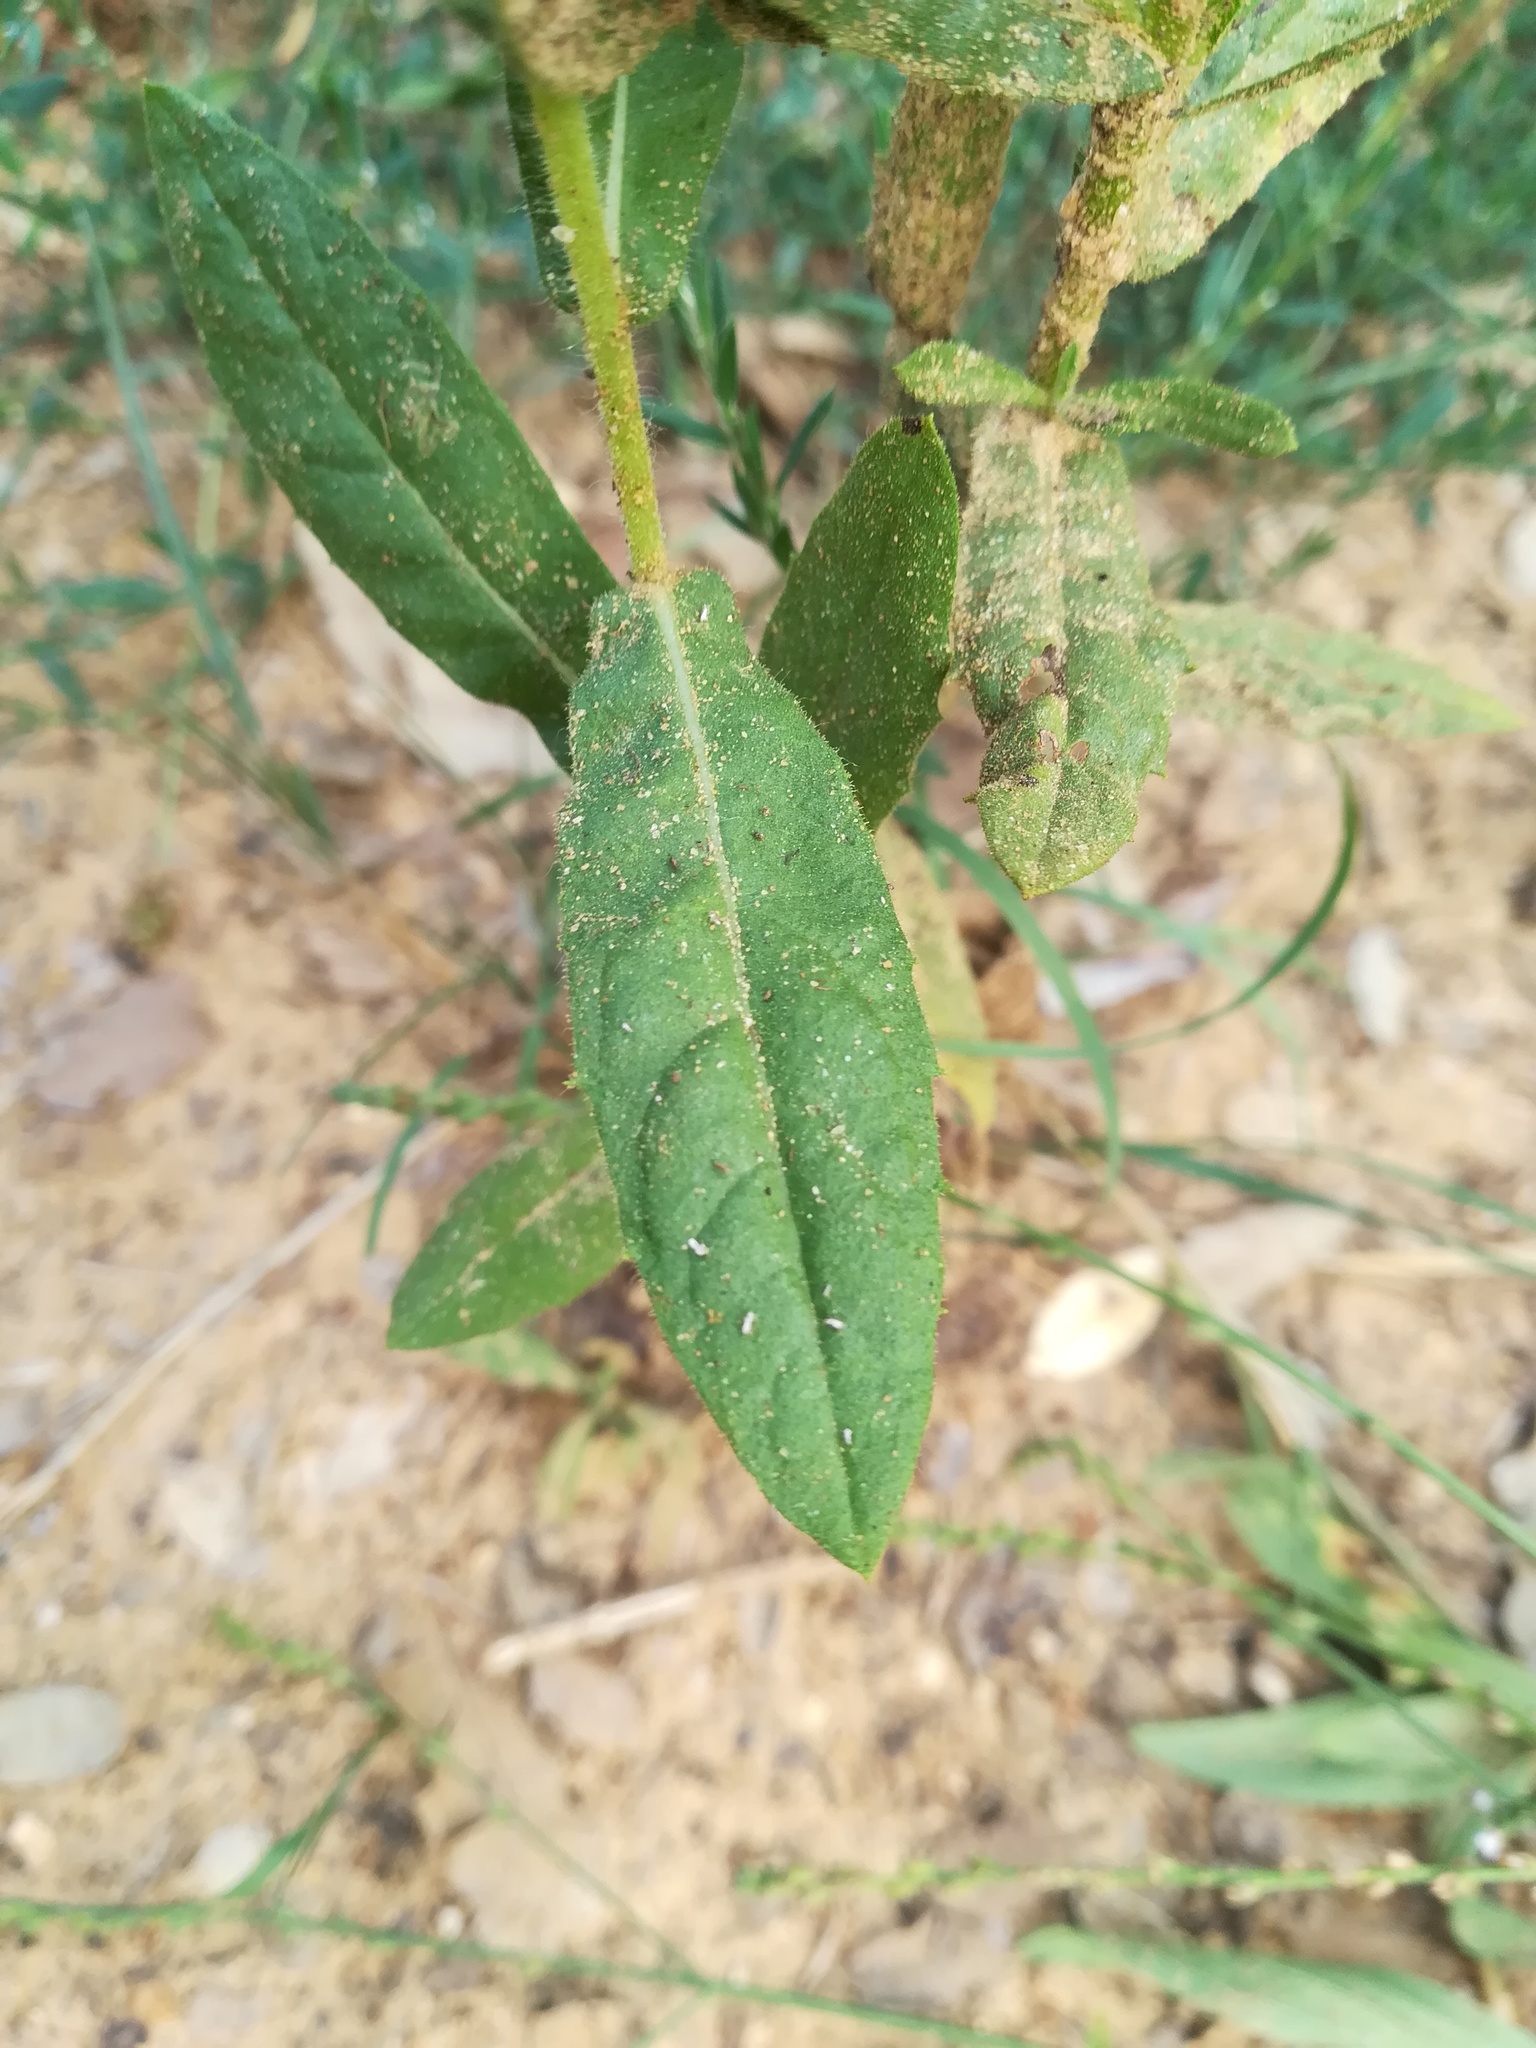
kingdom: Plantae
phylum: Tracheophyta
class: Magnoliopsida
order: Asterales
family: Asteraceae
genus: Dittrichia
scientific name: Dittrichia viscosa
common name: Woody fleabane
